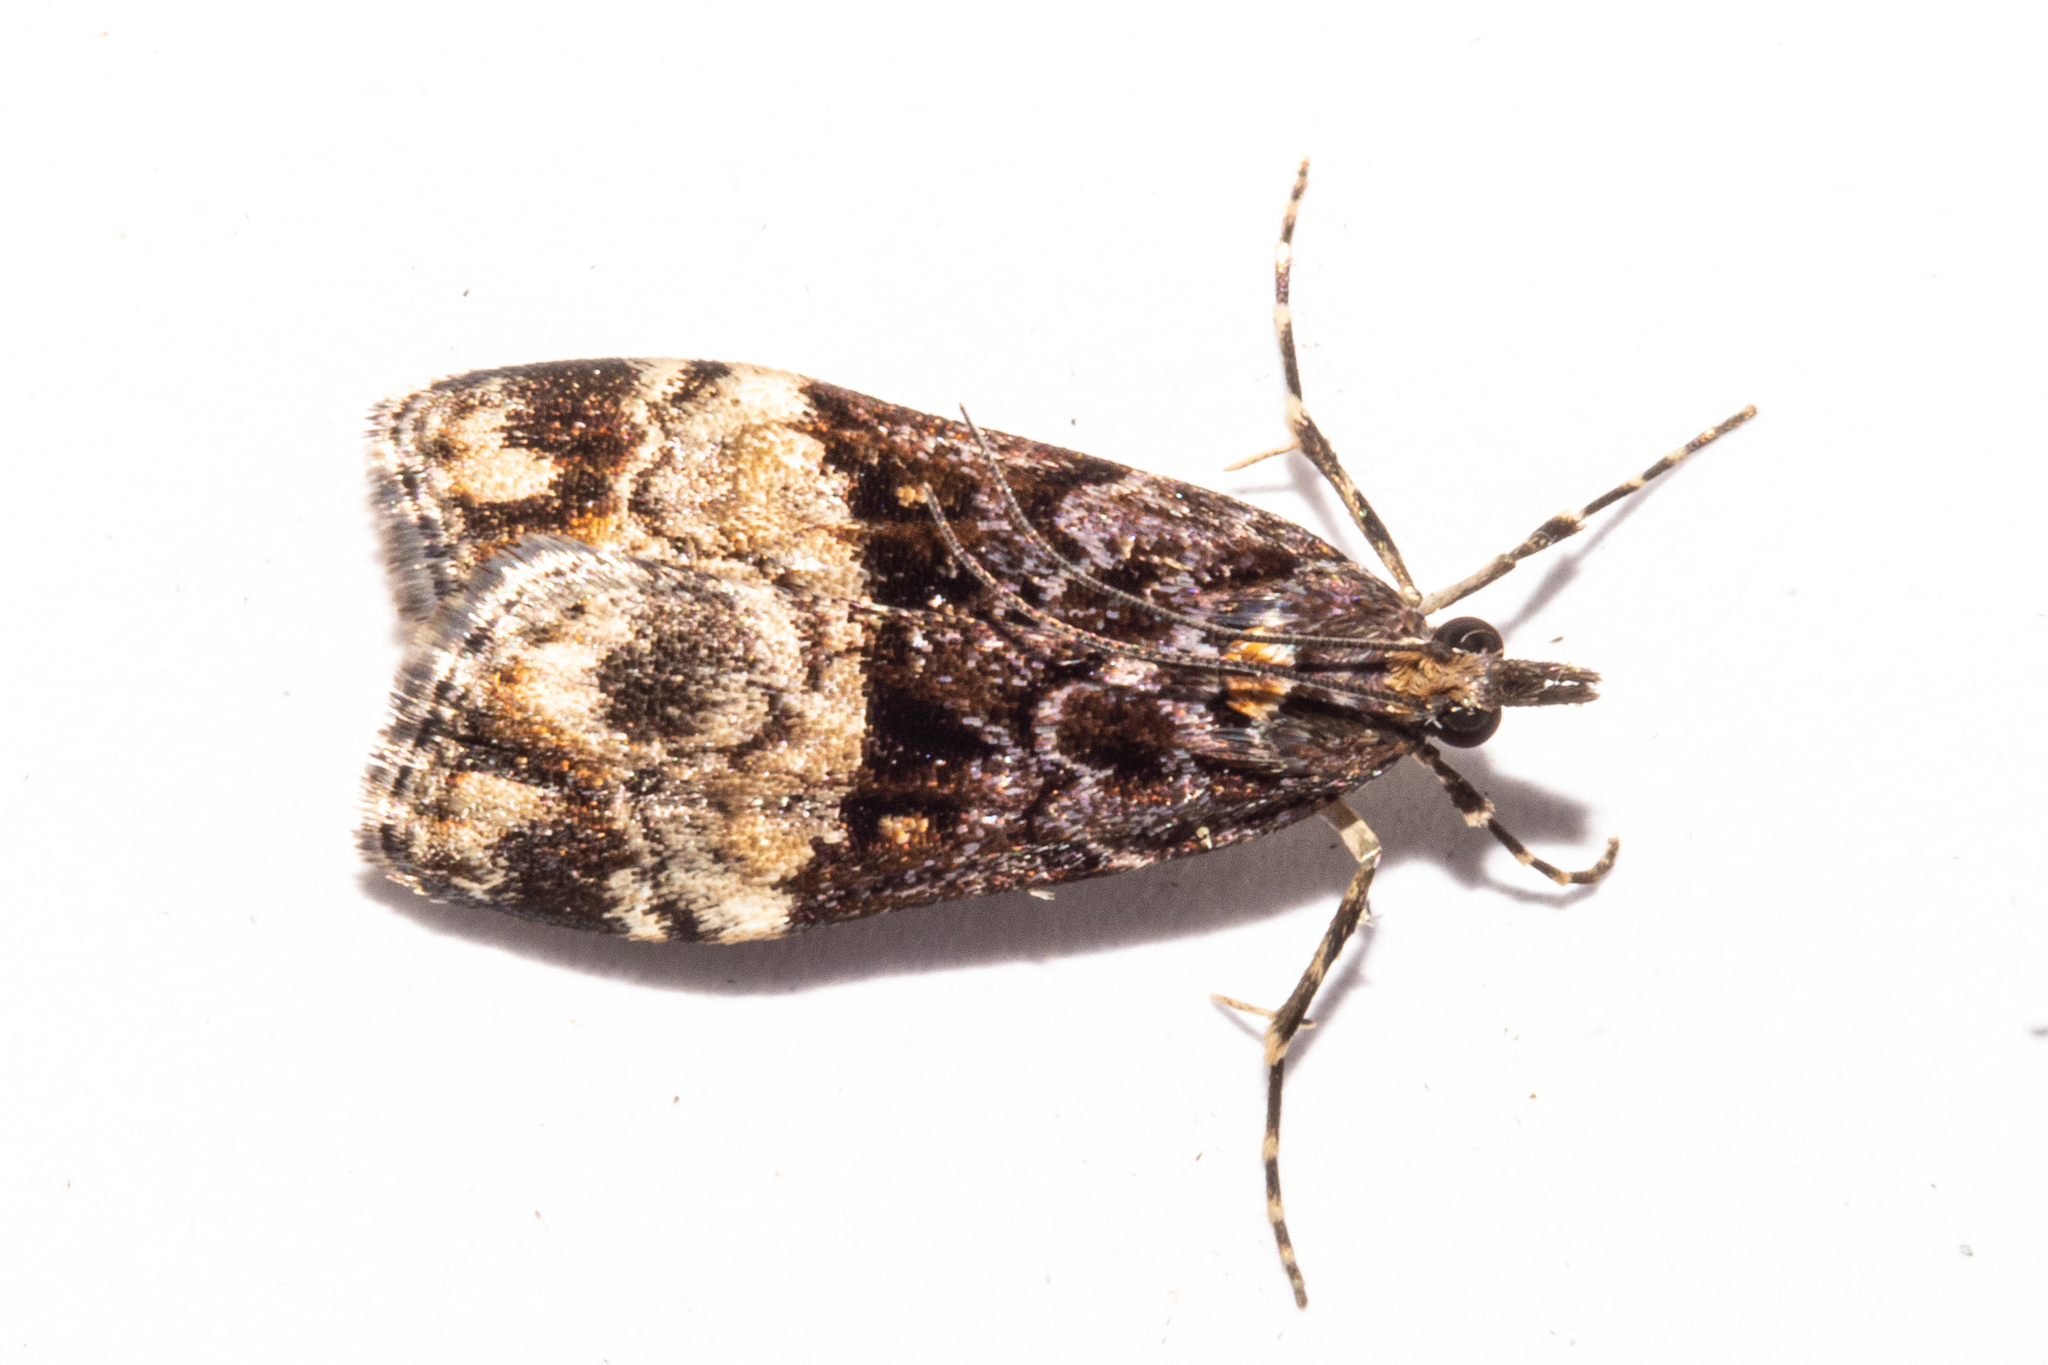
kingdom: Animalia
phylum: Arthropoda
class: Insecta
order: Lepidoptera
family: Crambidae
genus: Scoparia
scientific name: Scoparia minusculalis
